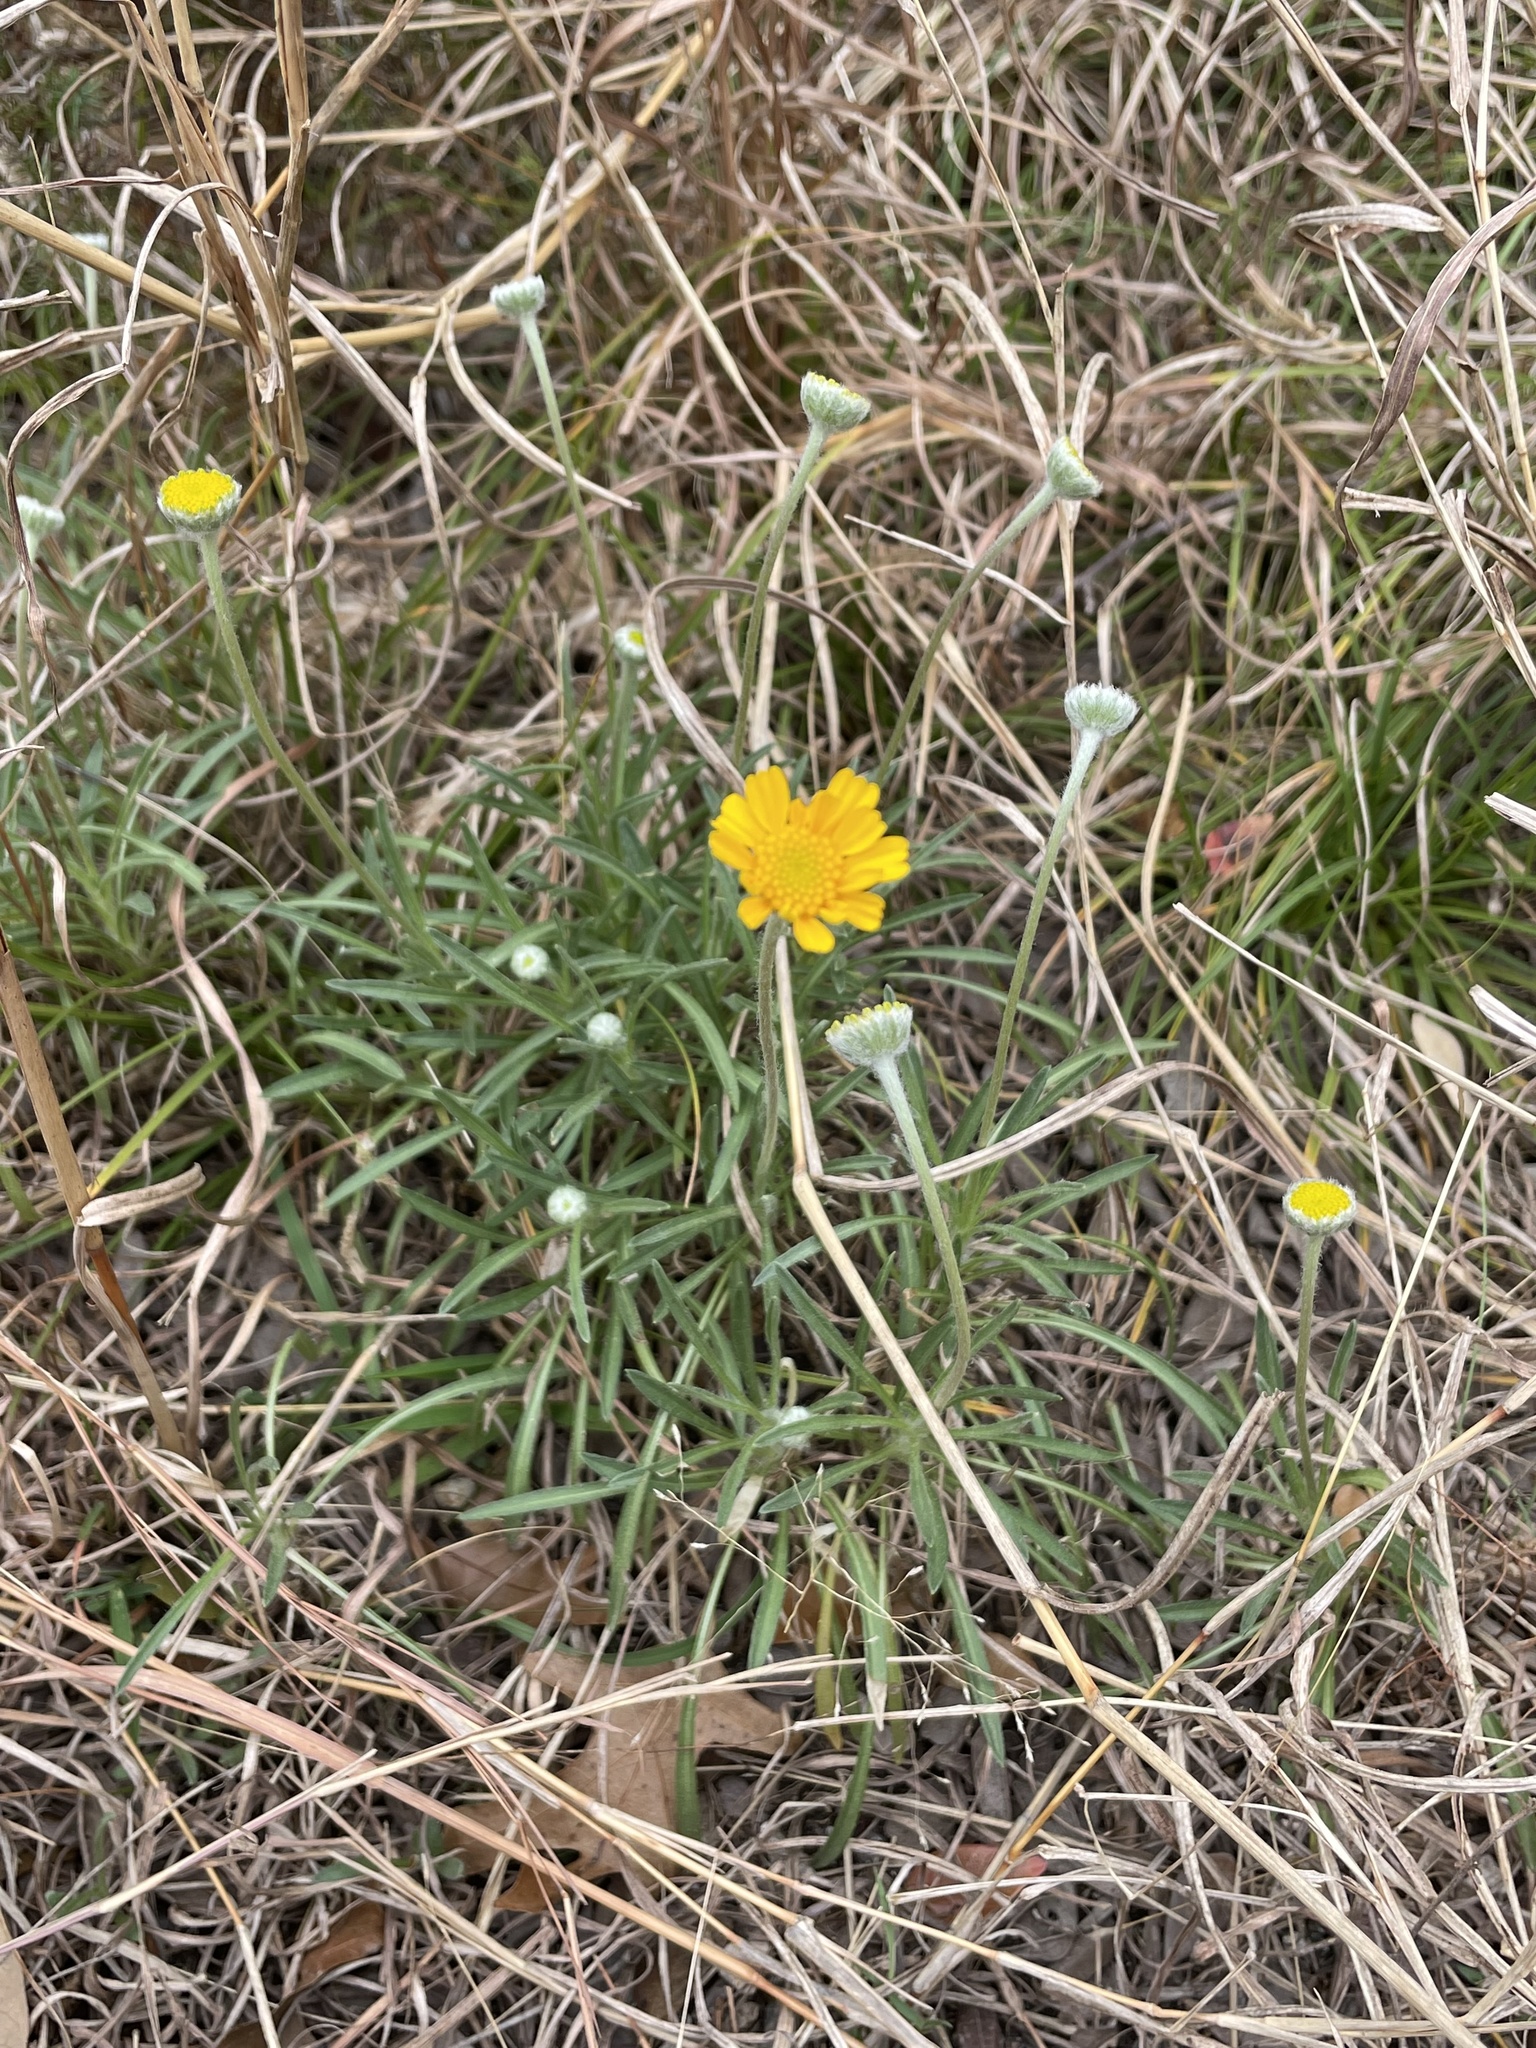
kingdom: Plantae
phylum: Tracheophyta
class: Magnoliopsida
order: Asterales
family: Asteraceae
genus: Tetraneuris
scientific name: Tetraneuris scaposa
